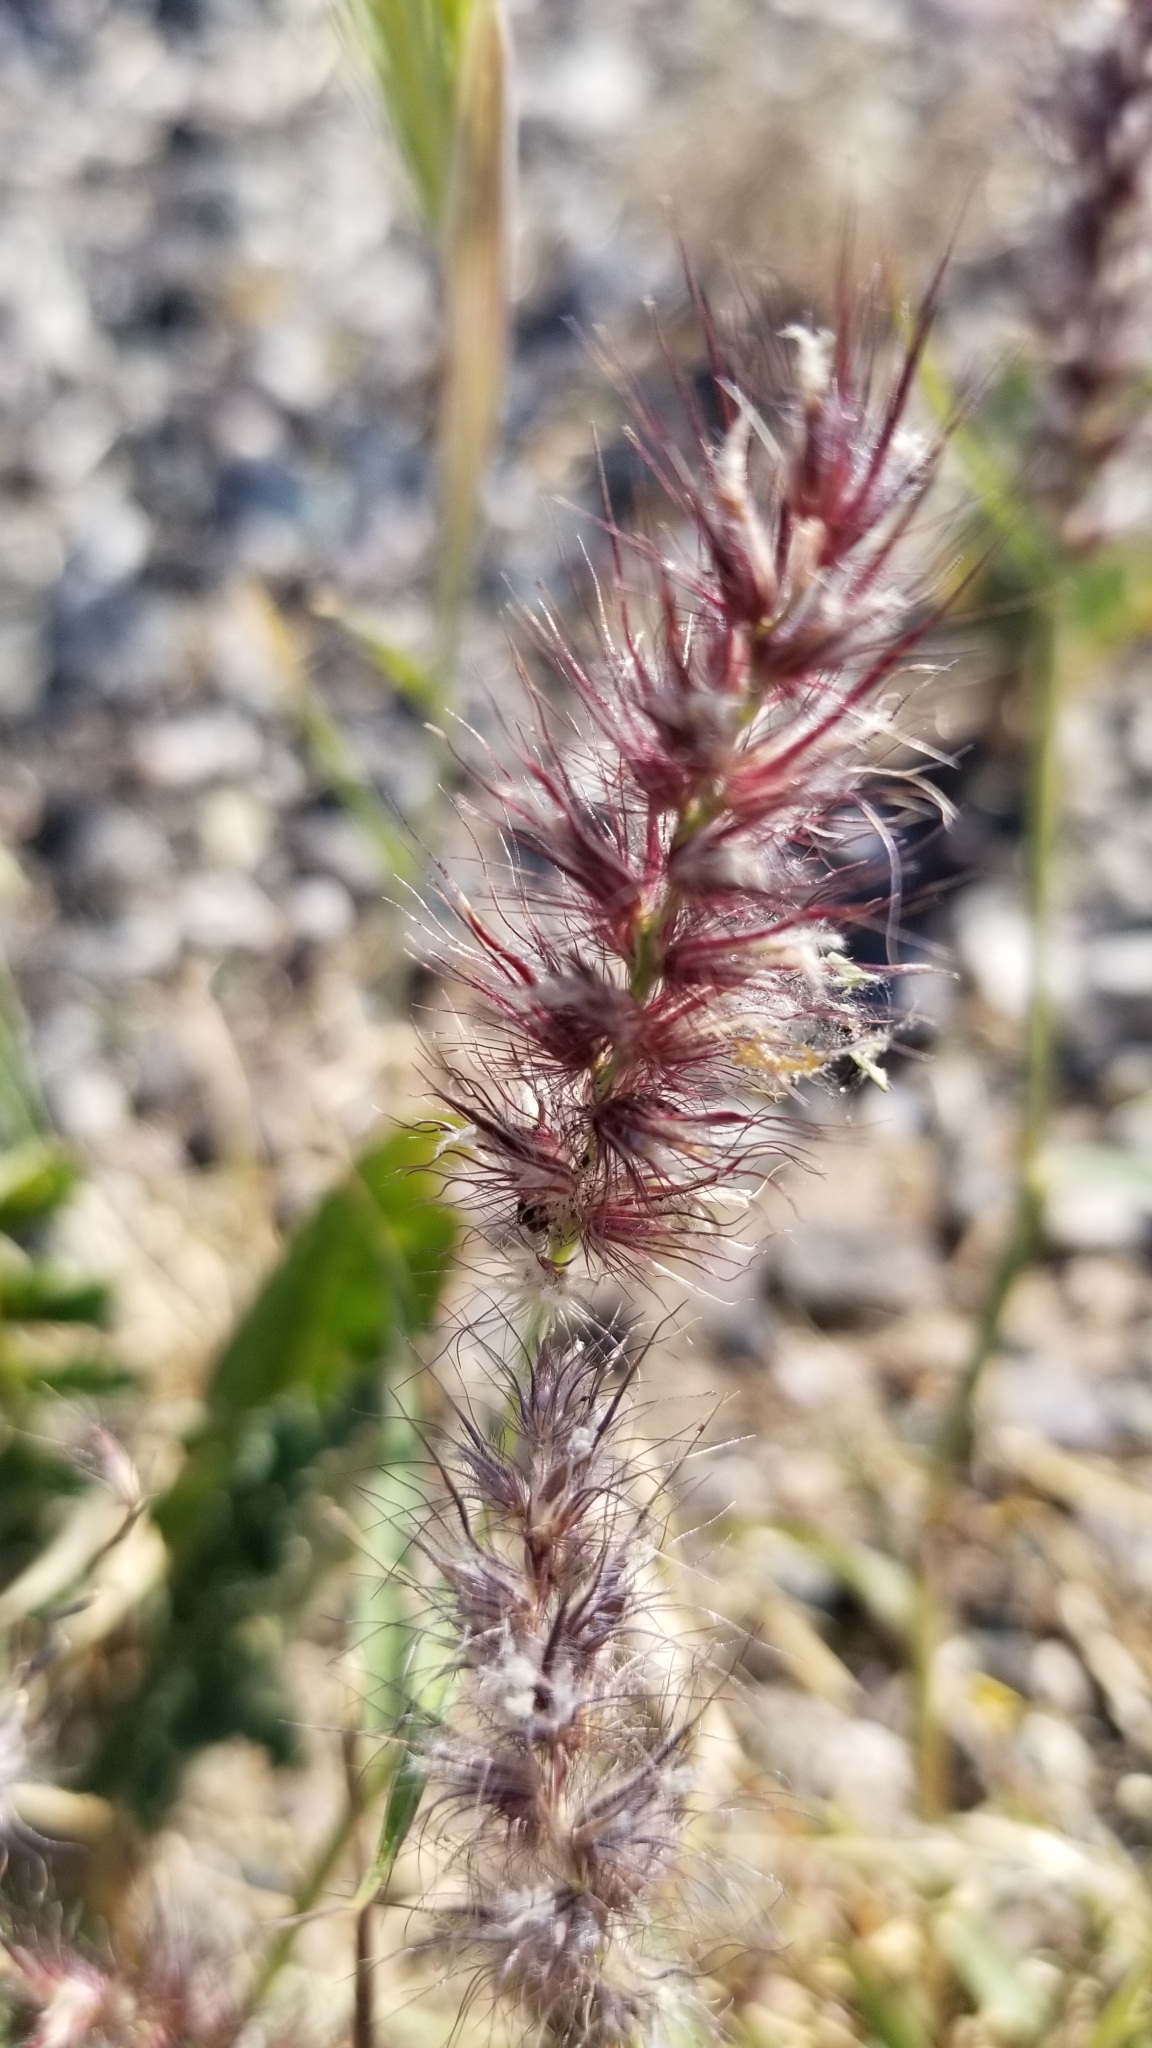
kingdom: Plantae
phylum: Tracheophyta
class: Liliopsida
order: Poales
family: Poaceae
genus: Cenchrus
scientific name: Cenchrus ciliaris
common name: Buffelgrass
